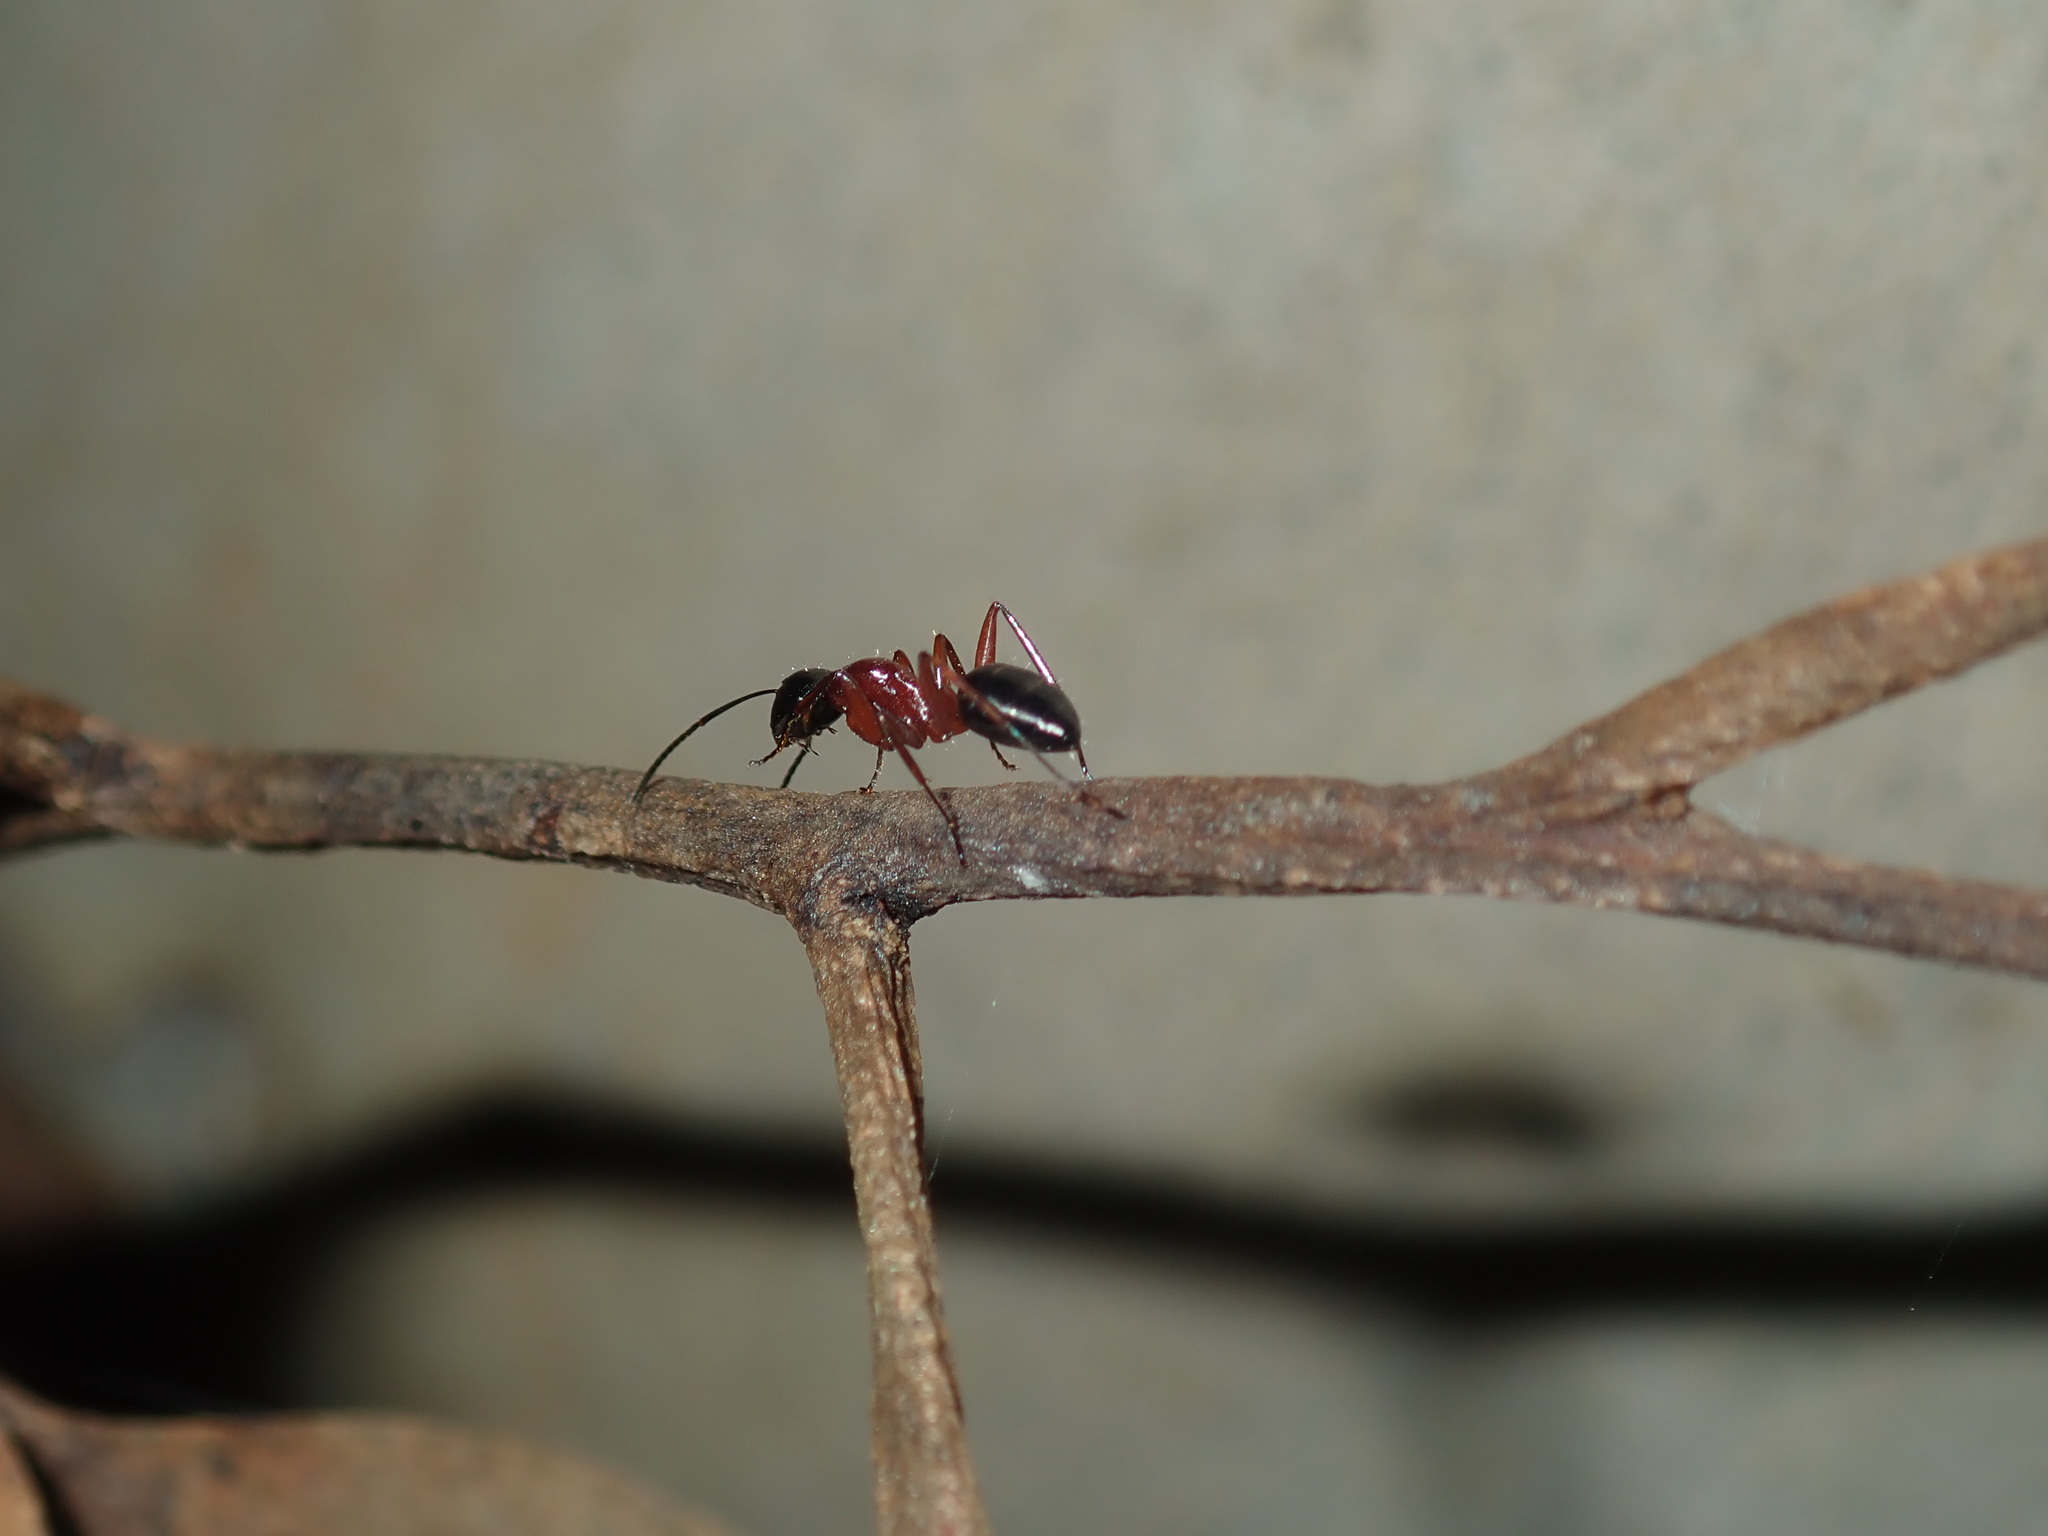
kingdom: Animalia
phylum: Arthropoda
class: Insecta
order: Hymenoptera
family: Formicidae
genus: Camponotus
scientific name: Camponotus innexus
